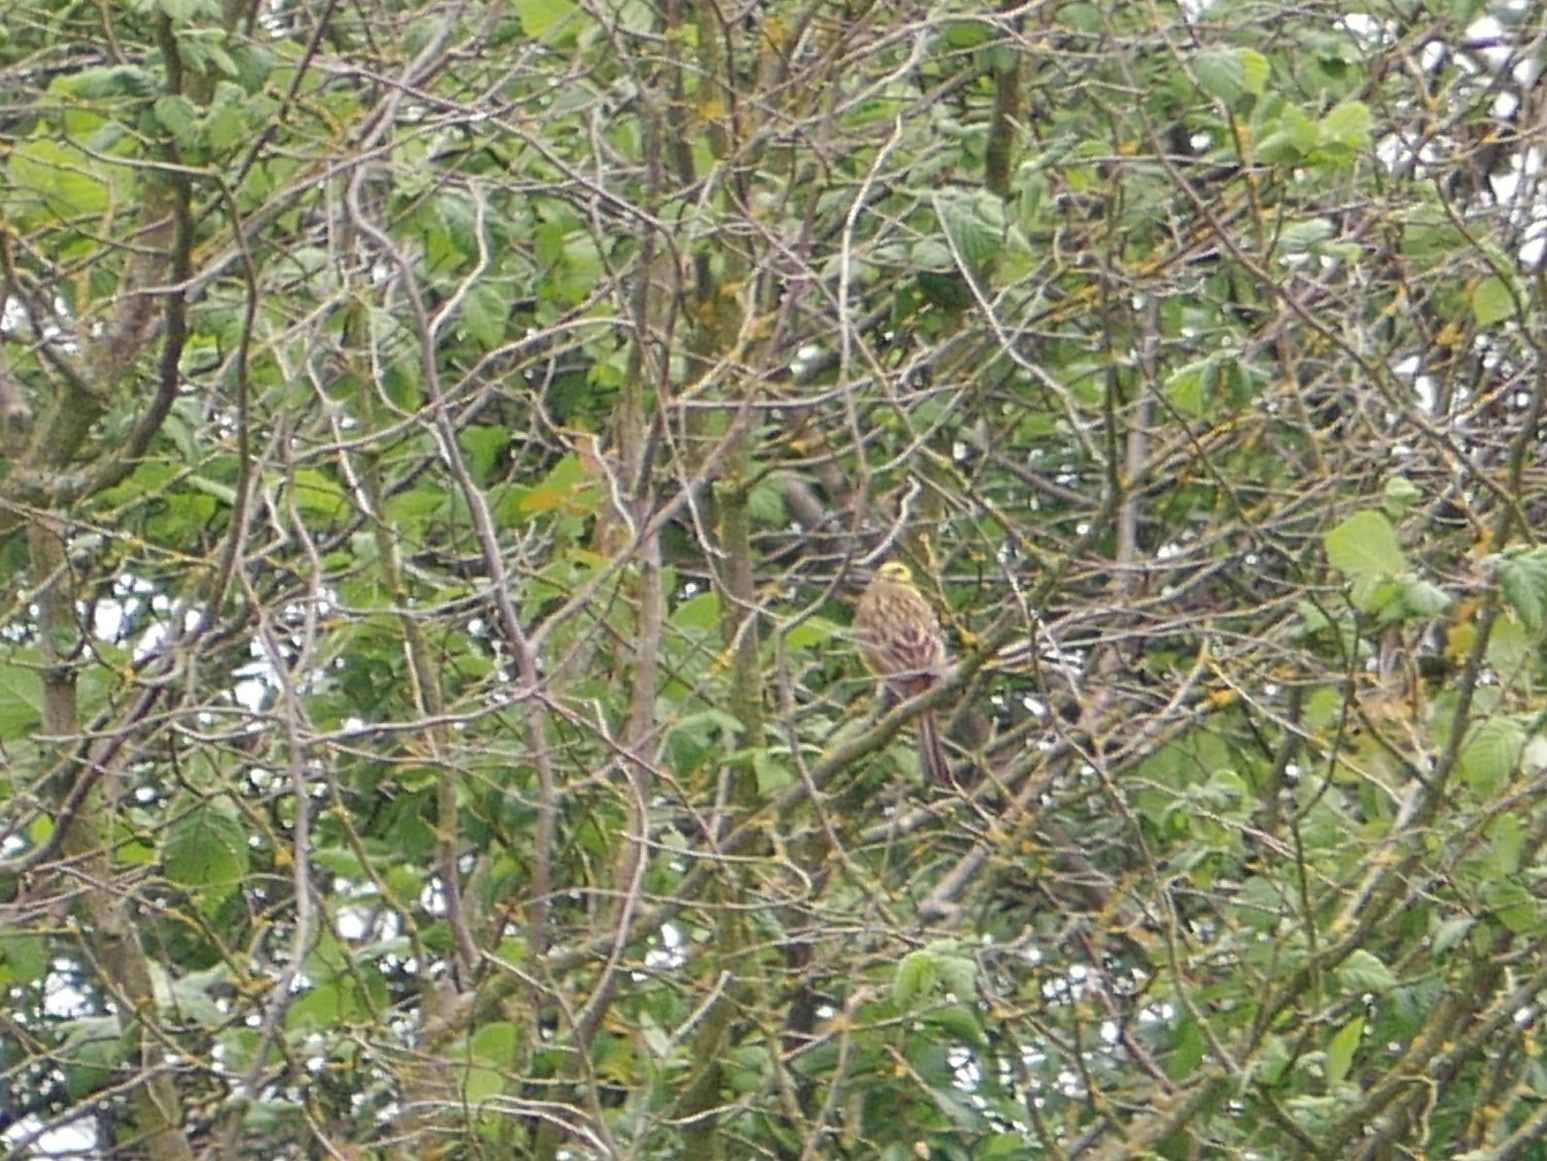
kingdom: Animalia
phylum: Chordata
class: Aves
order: Passeriformes
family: Emberizidae
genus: Emberiza
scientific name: Emberiza citrinella
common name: Yellowhammer
